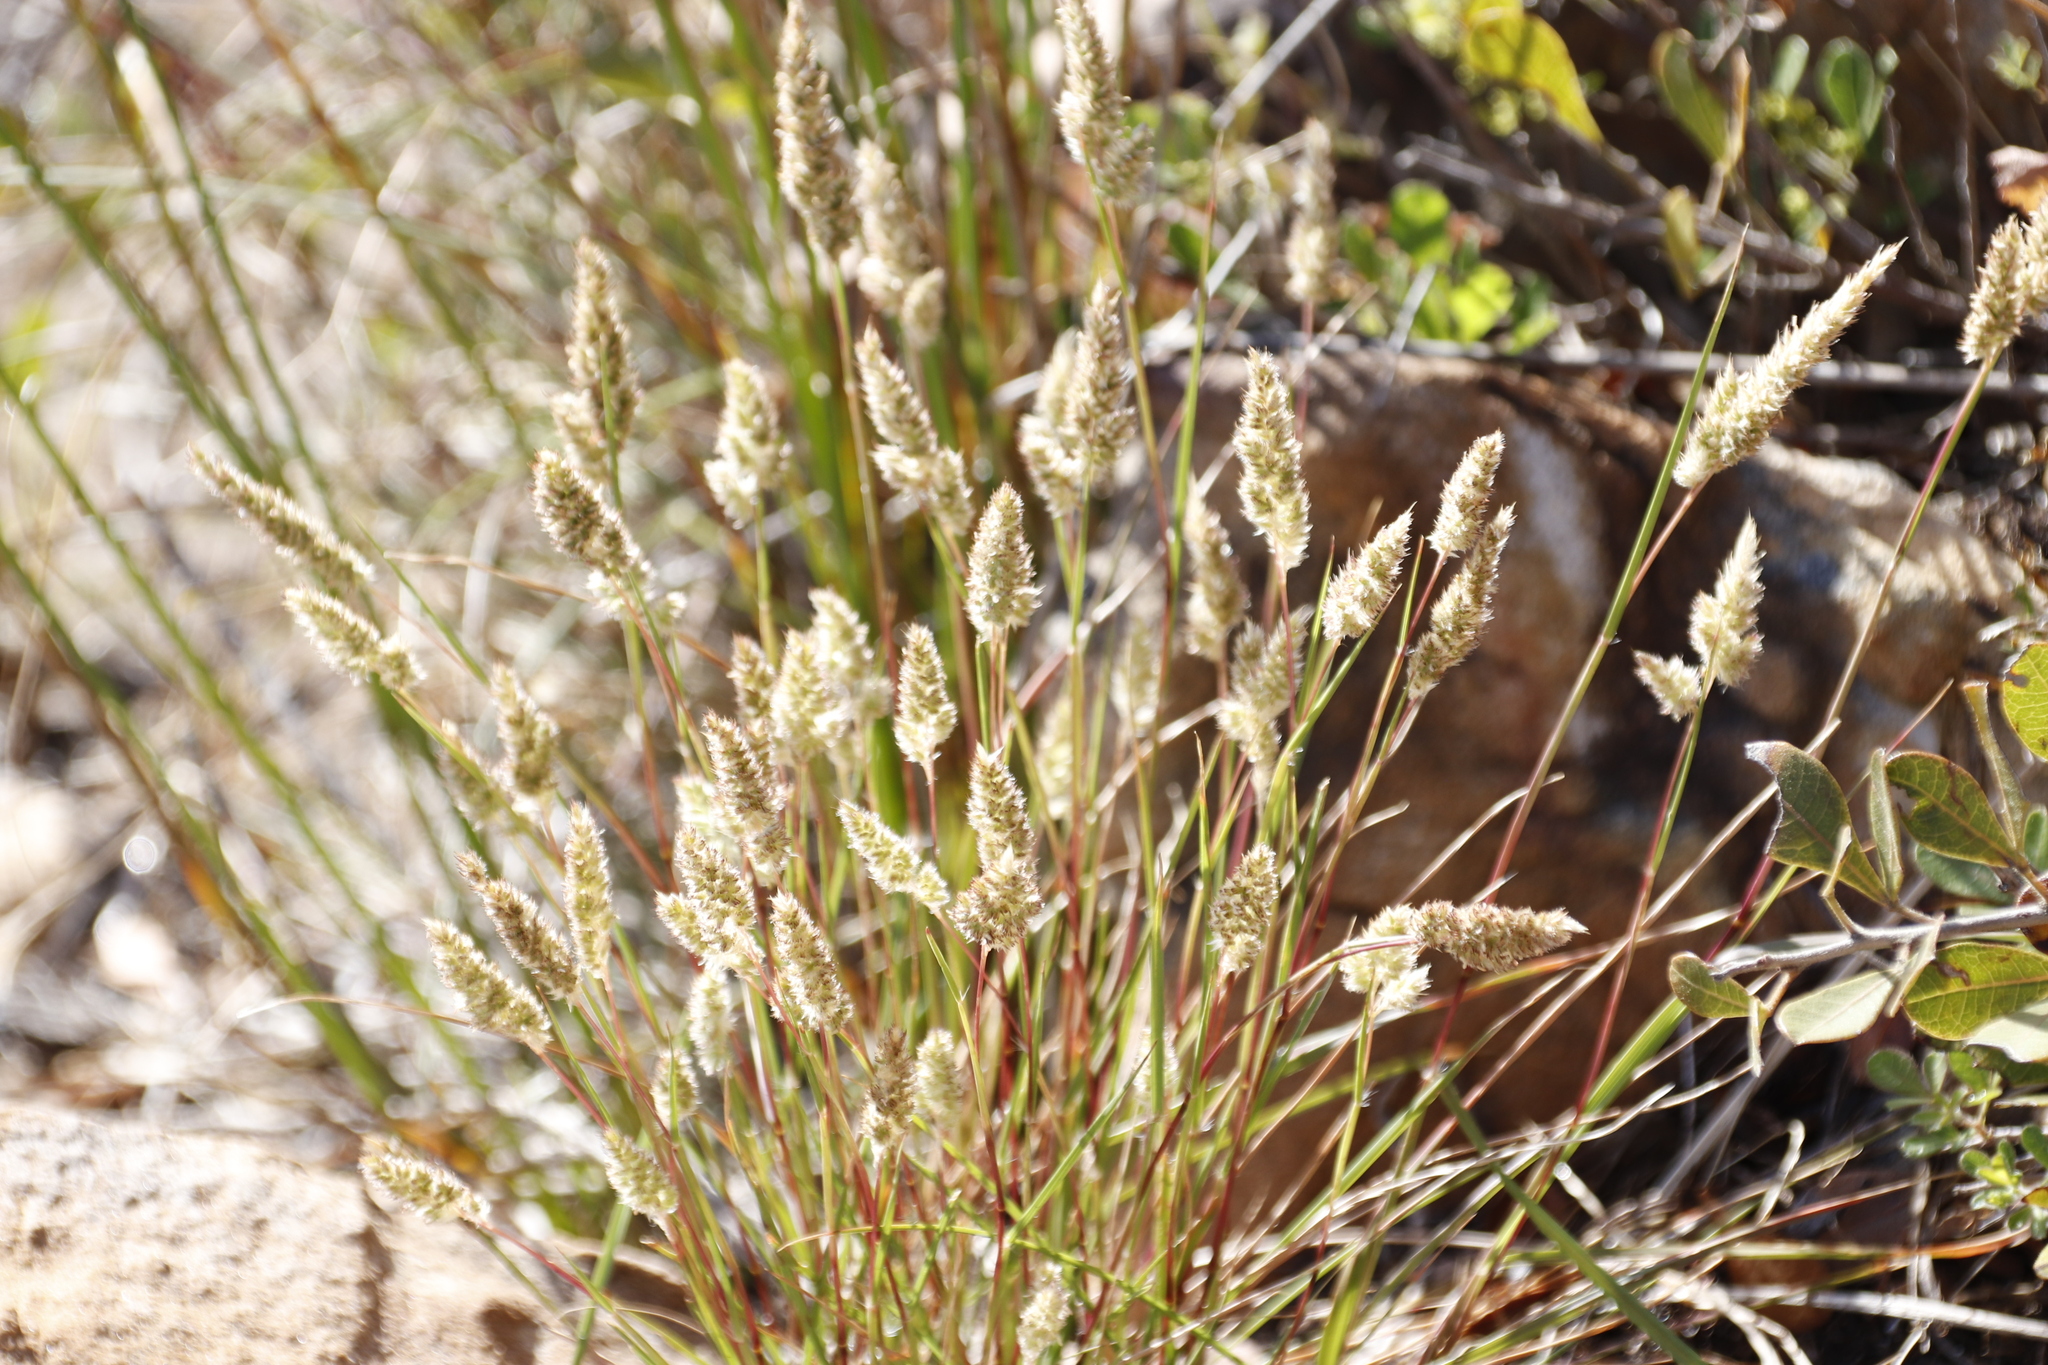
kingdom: Plantae
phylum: Tracheophyta
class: Liliopsida
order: Poales
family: Poaceae
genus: Tribolium
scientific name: Tribolium hispidum
